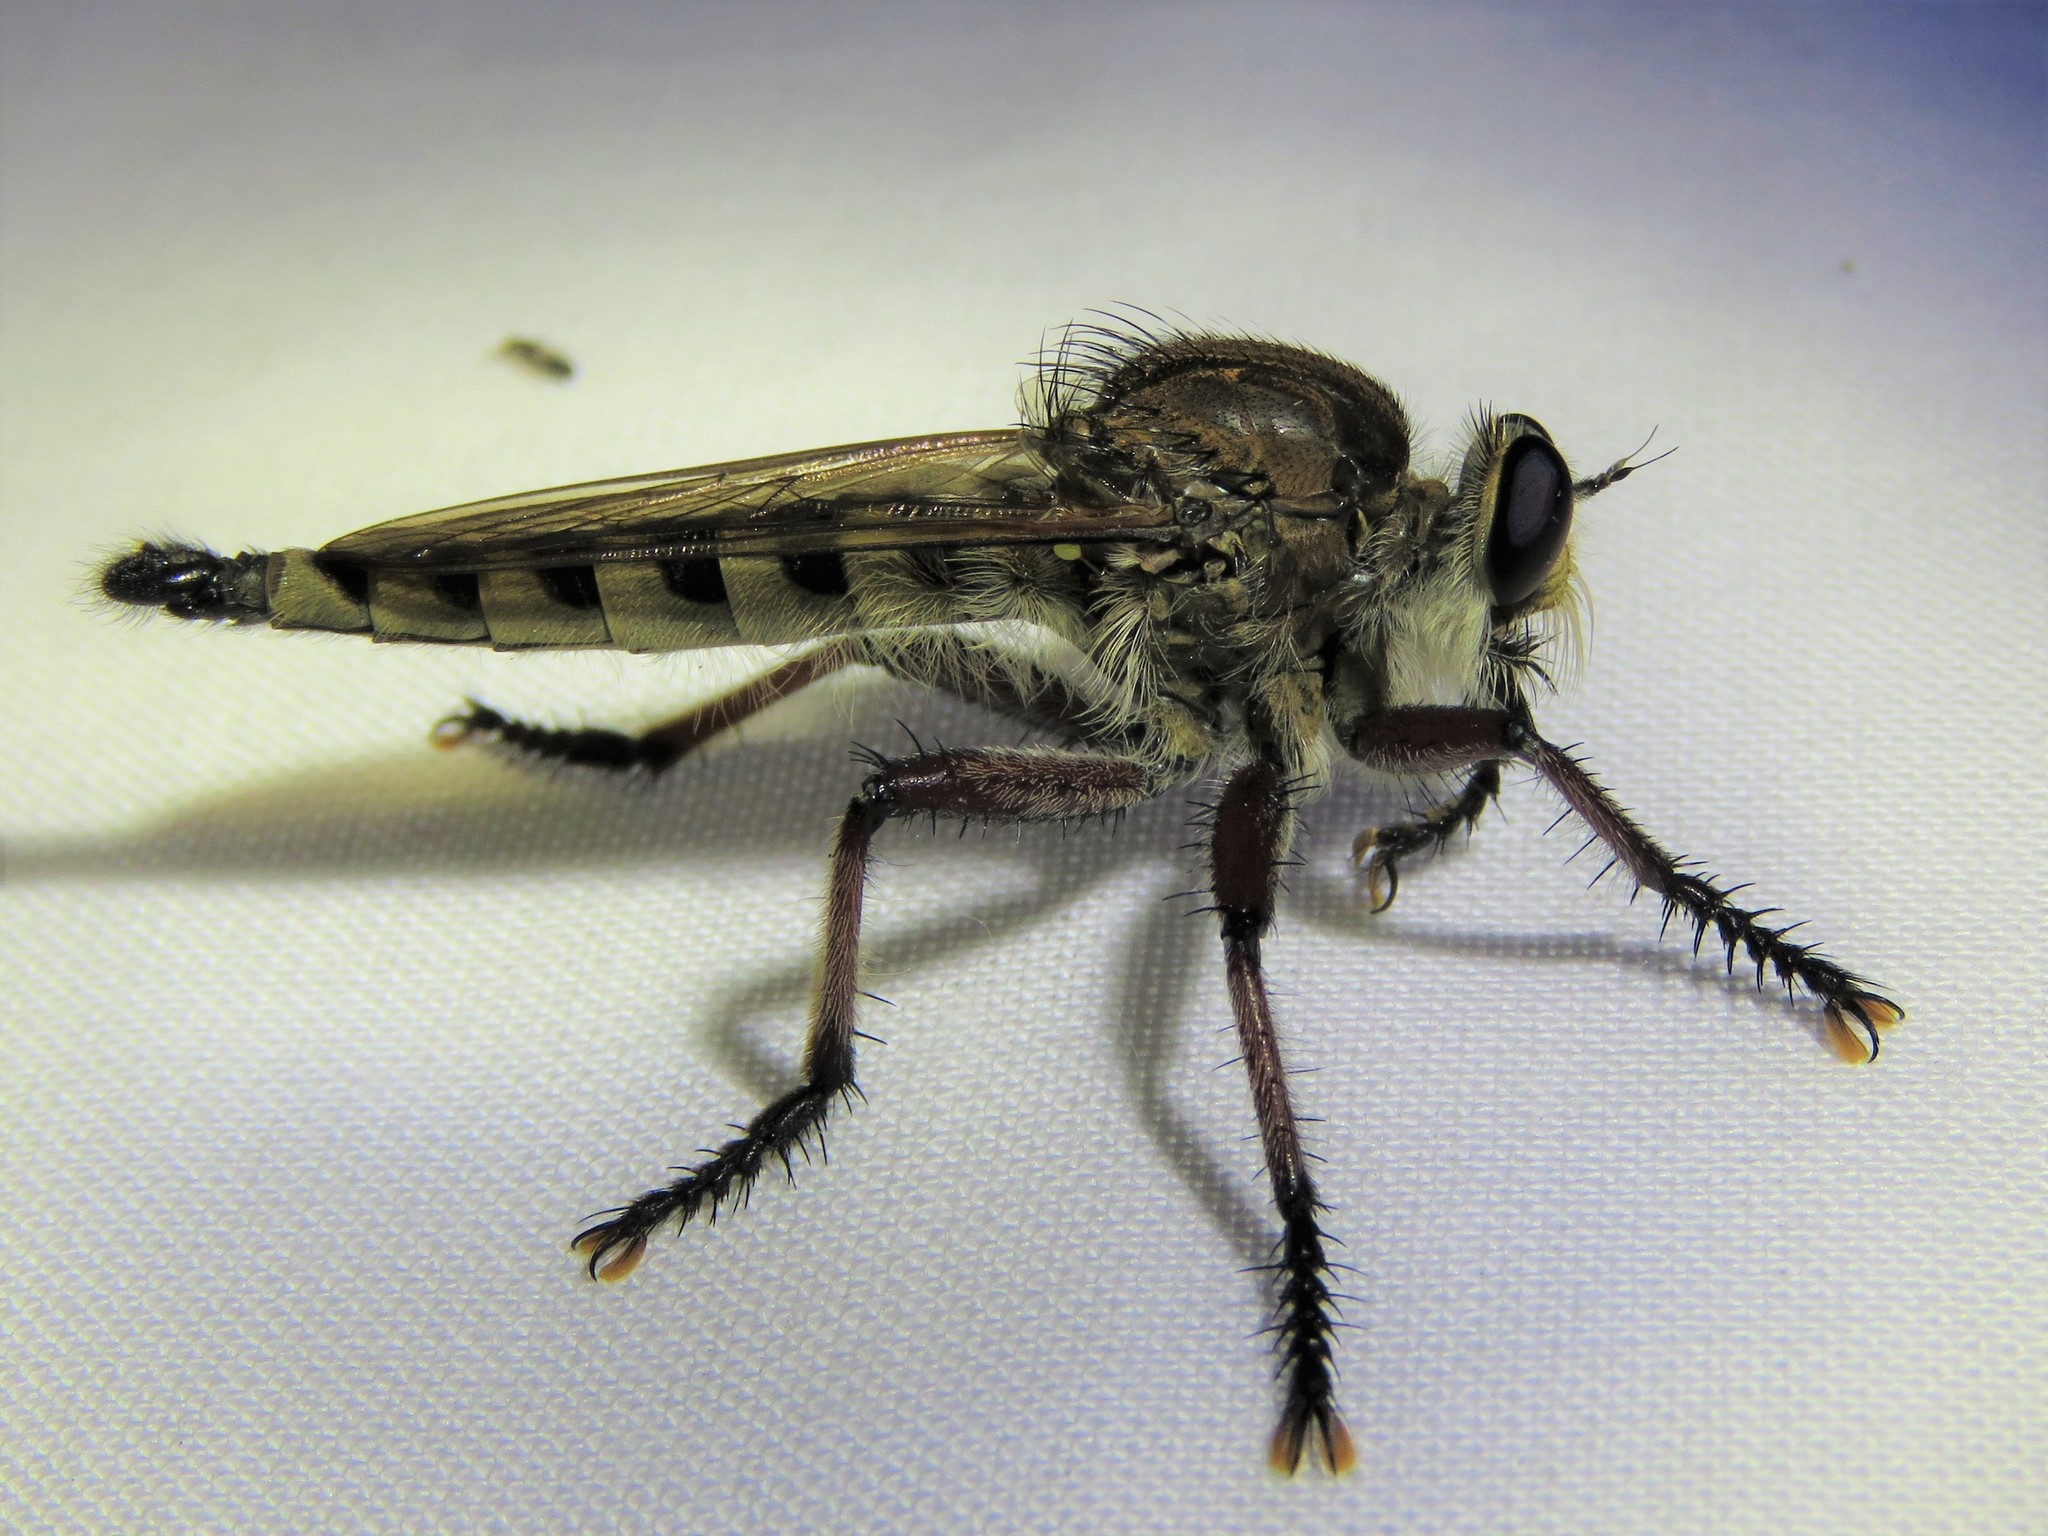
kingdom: Animalia
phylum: Arthropoda
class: Insecta
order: Diptera
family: Asilidae
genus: Promachus
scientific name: Promachus hinei
